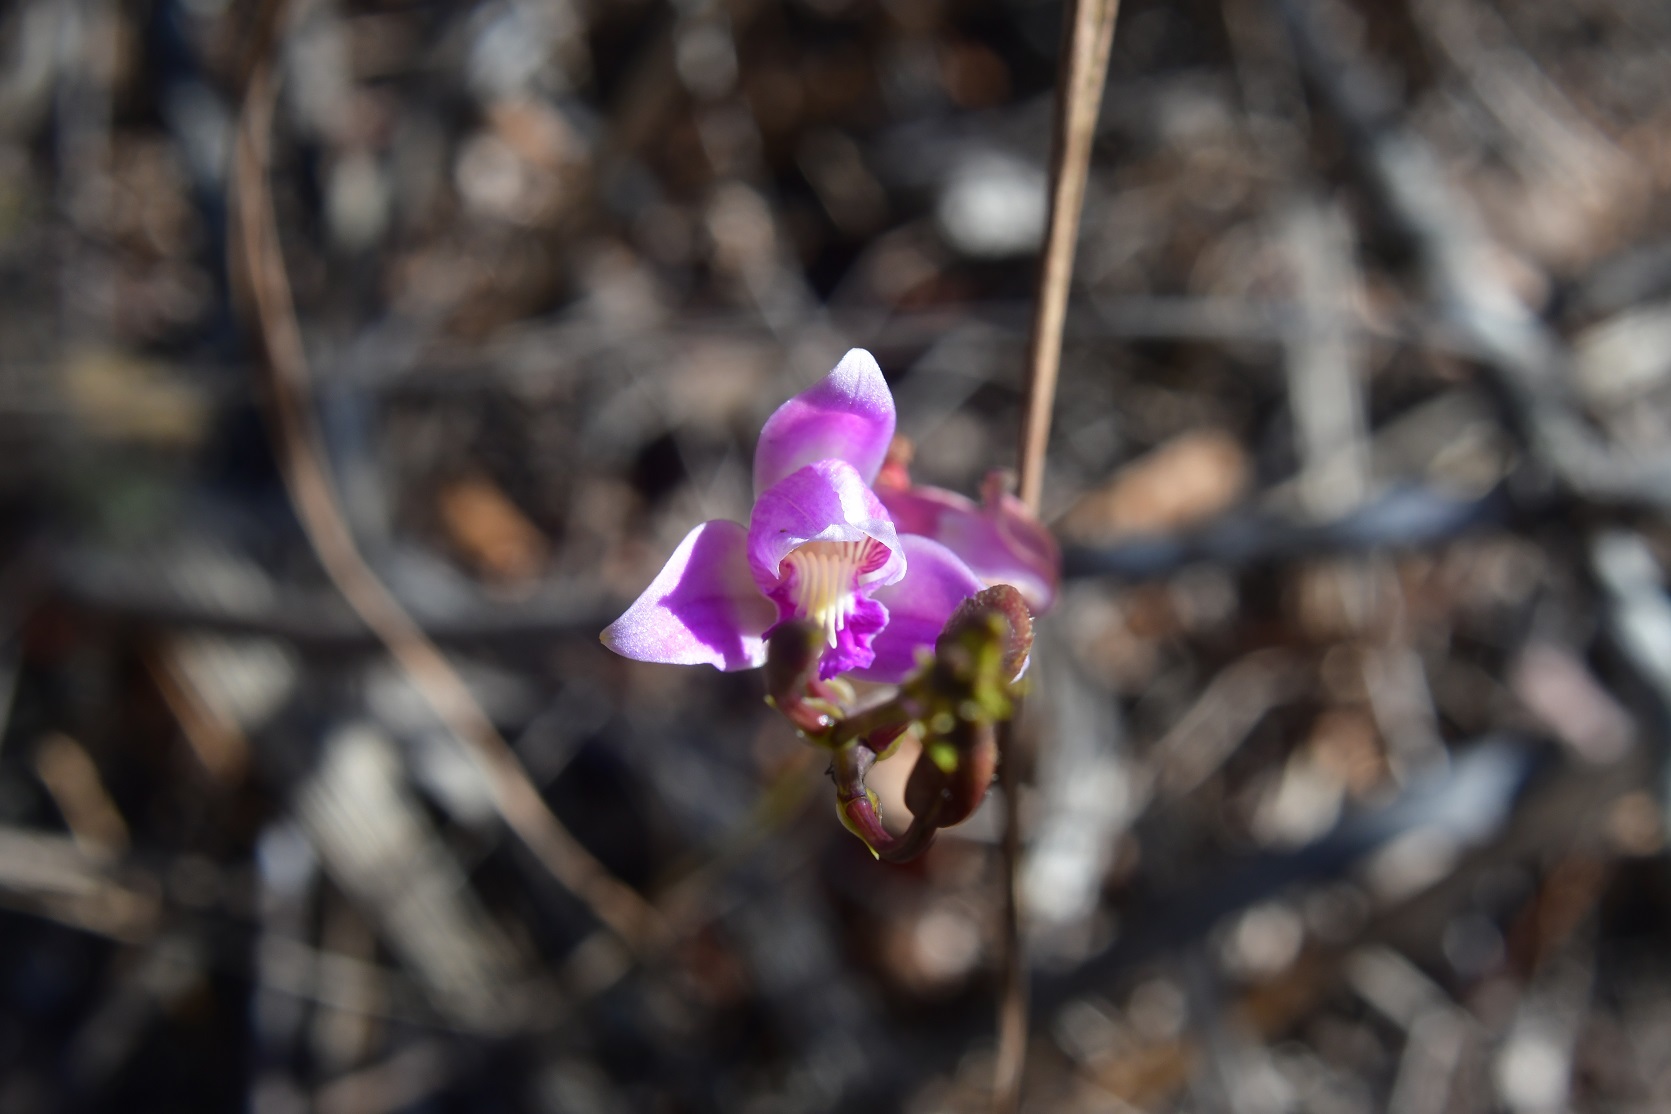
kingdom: Plantae
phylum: Tracheophyta
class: Liliopsida
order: Asparagales
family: Orchidaceae
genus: Bletia
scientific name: Bletia purpurea
